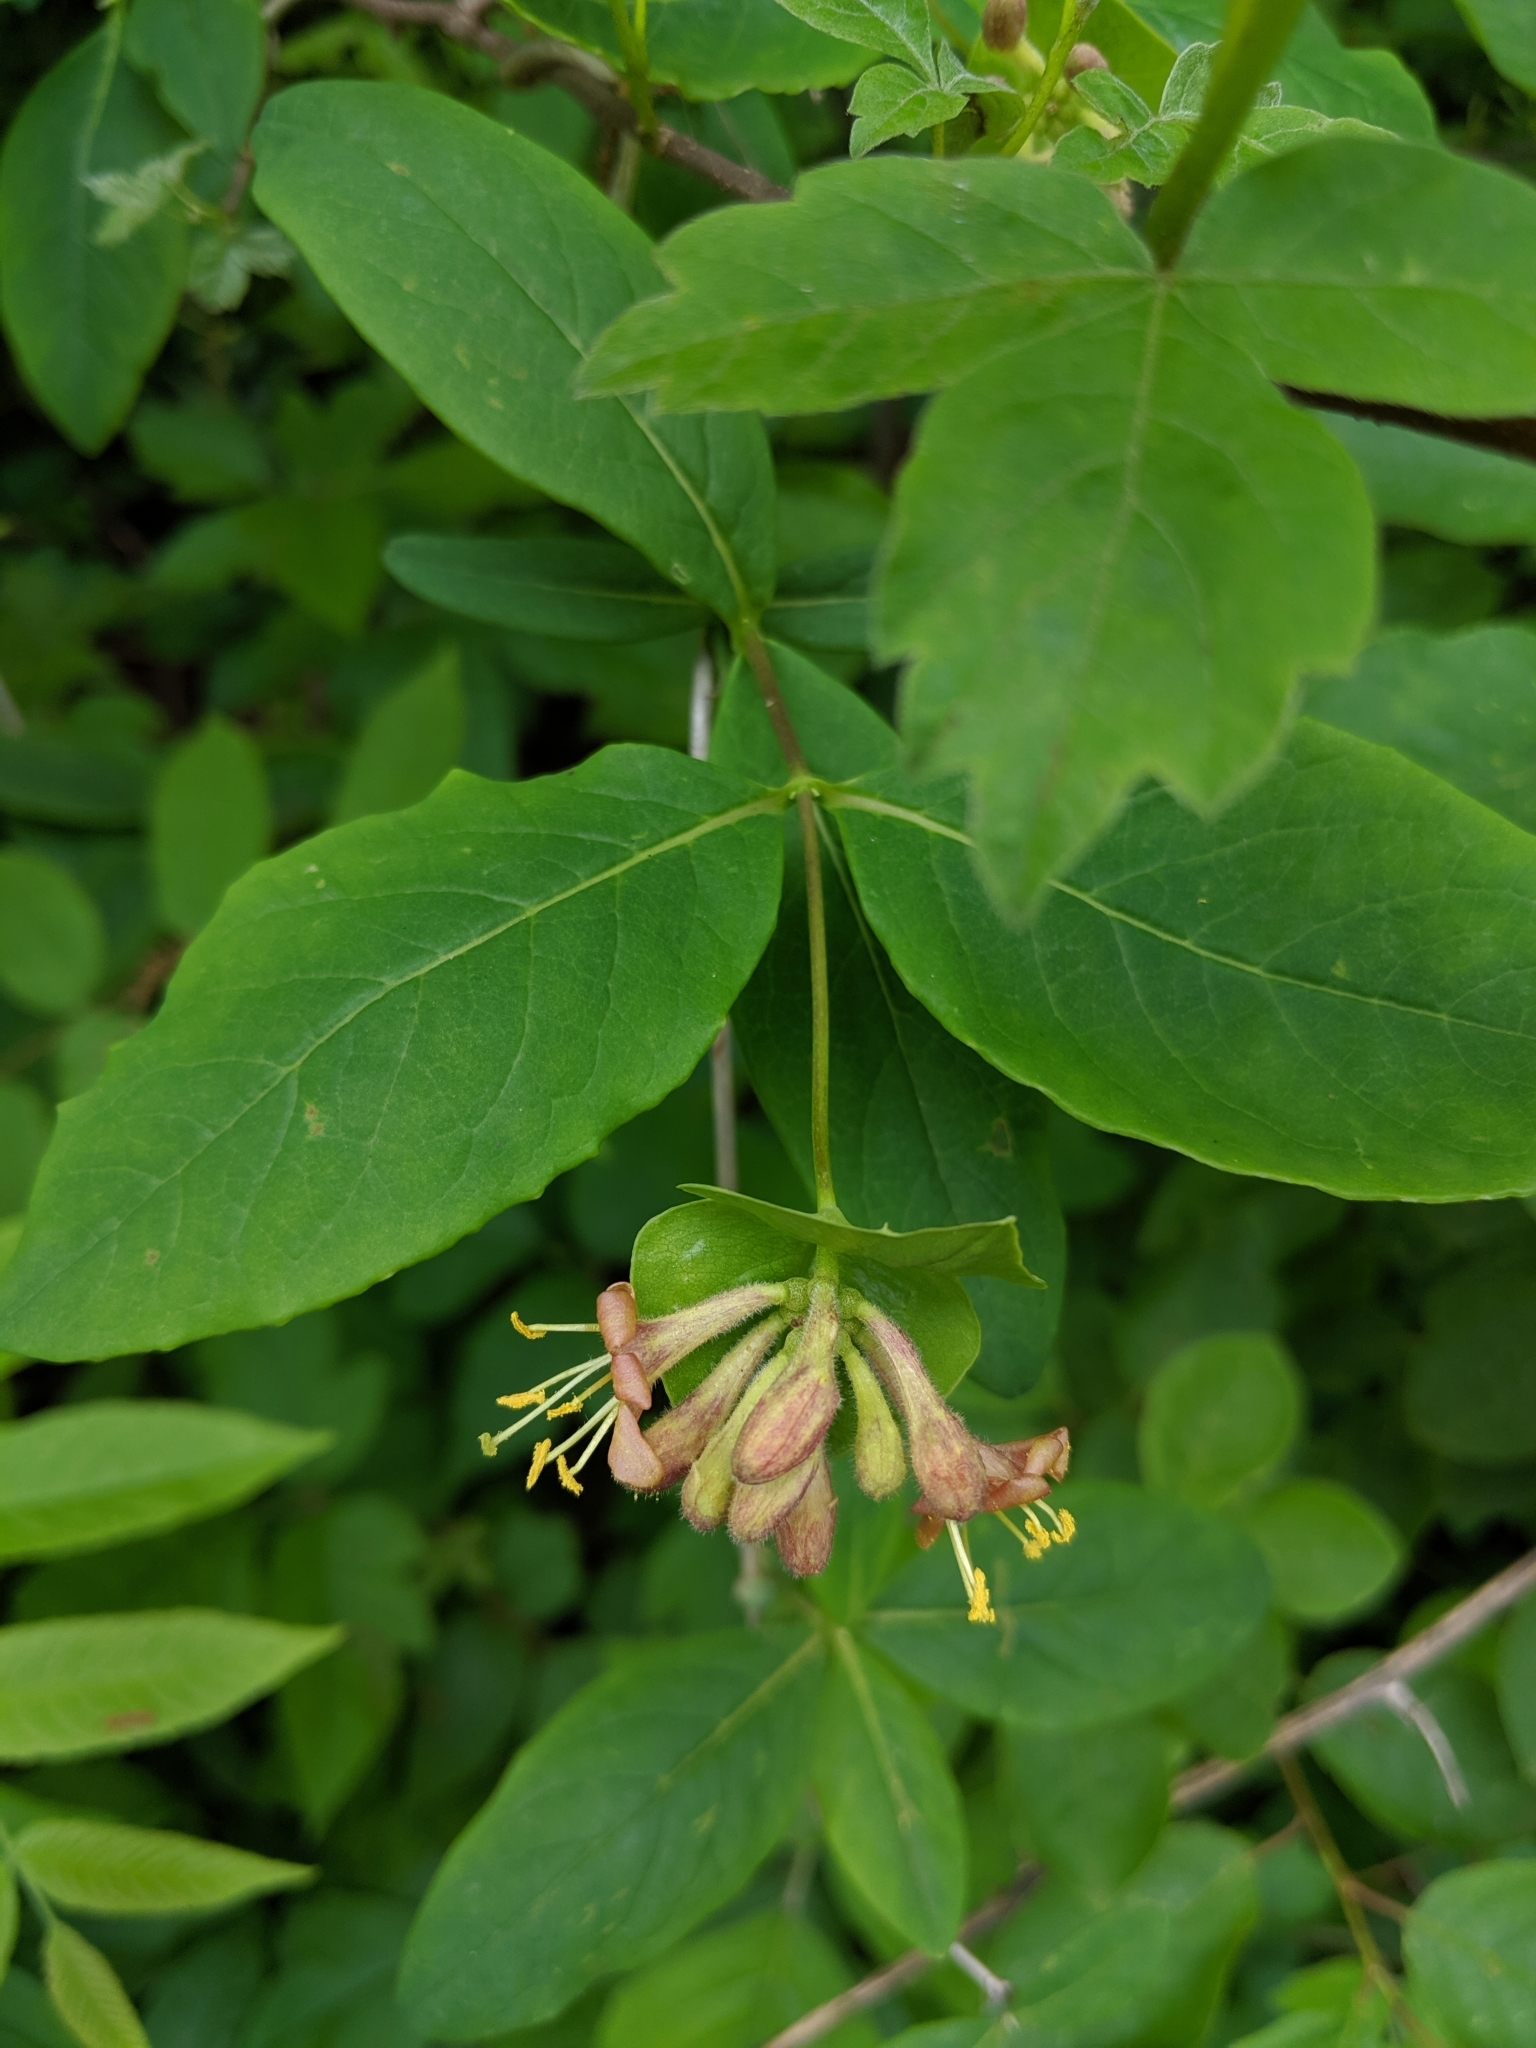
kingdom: Plantae
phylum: Tracheophyta
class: Magnoliopsida
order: Dipsacales
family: Caprifoliaceae
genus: Lonicera
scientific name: Lonicera dioica
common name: Limber honeysuckle
